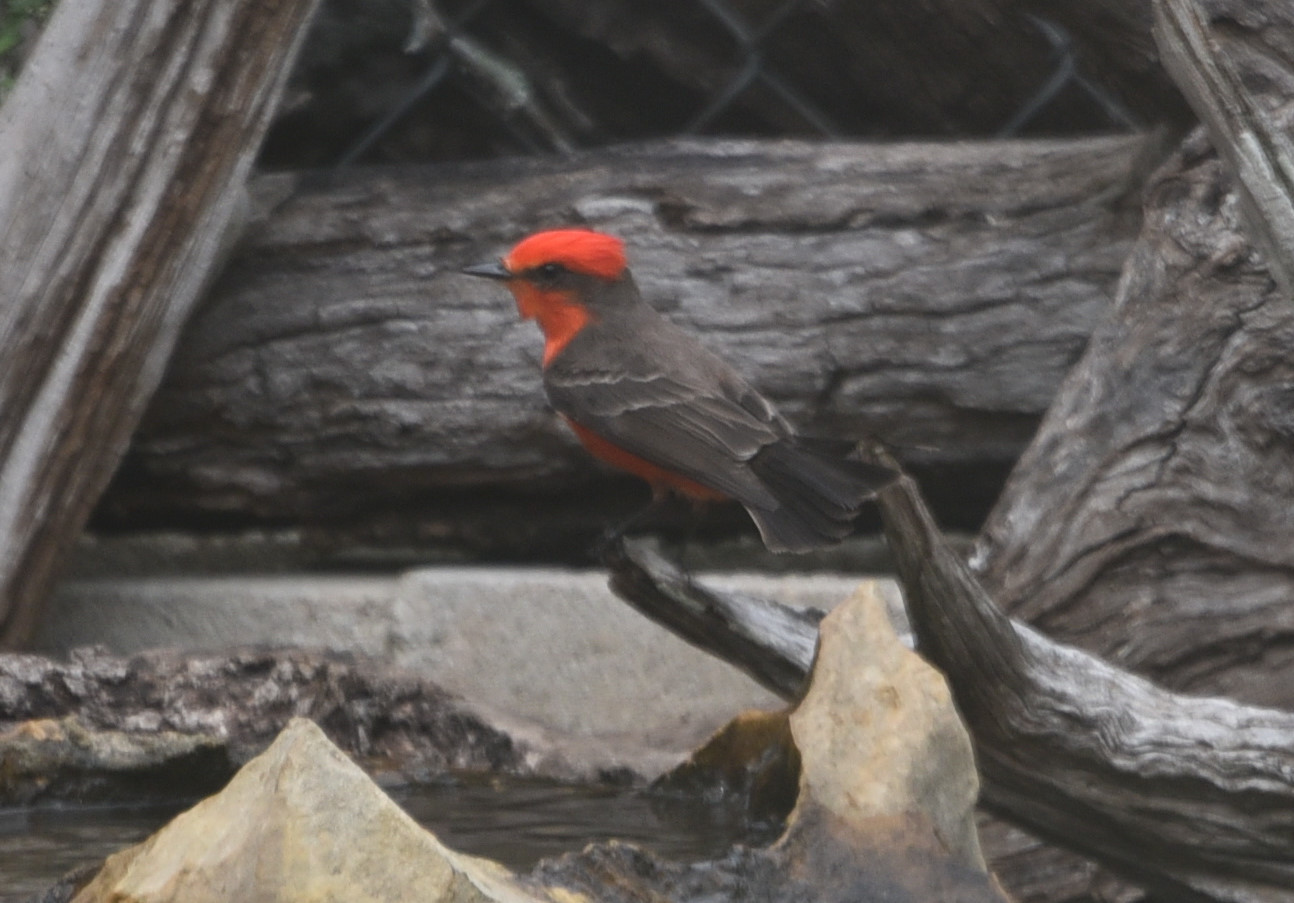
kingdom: Animalia
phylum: Chordata
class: Aves
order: Passeriformes
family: Tyrannidae
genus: Pyrocephalus
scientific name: Pyrocephalus rubinus
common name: Vermilion flycatcher
